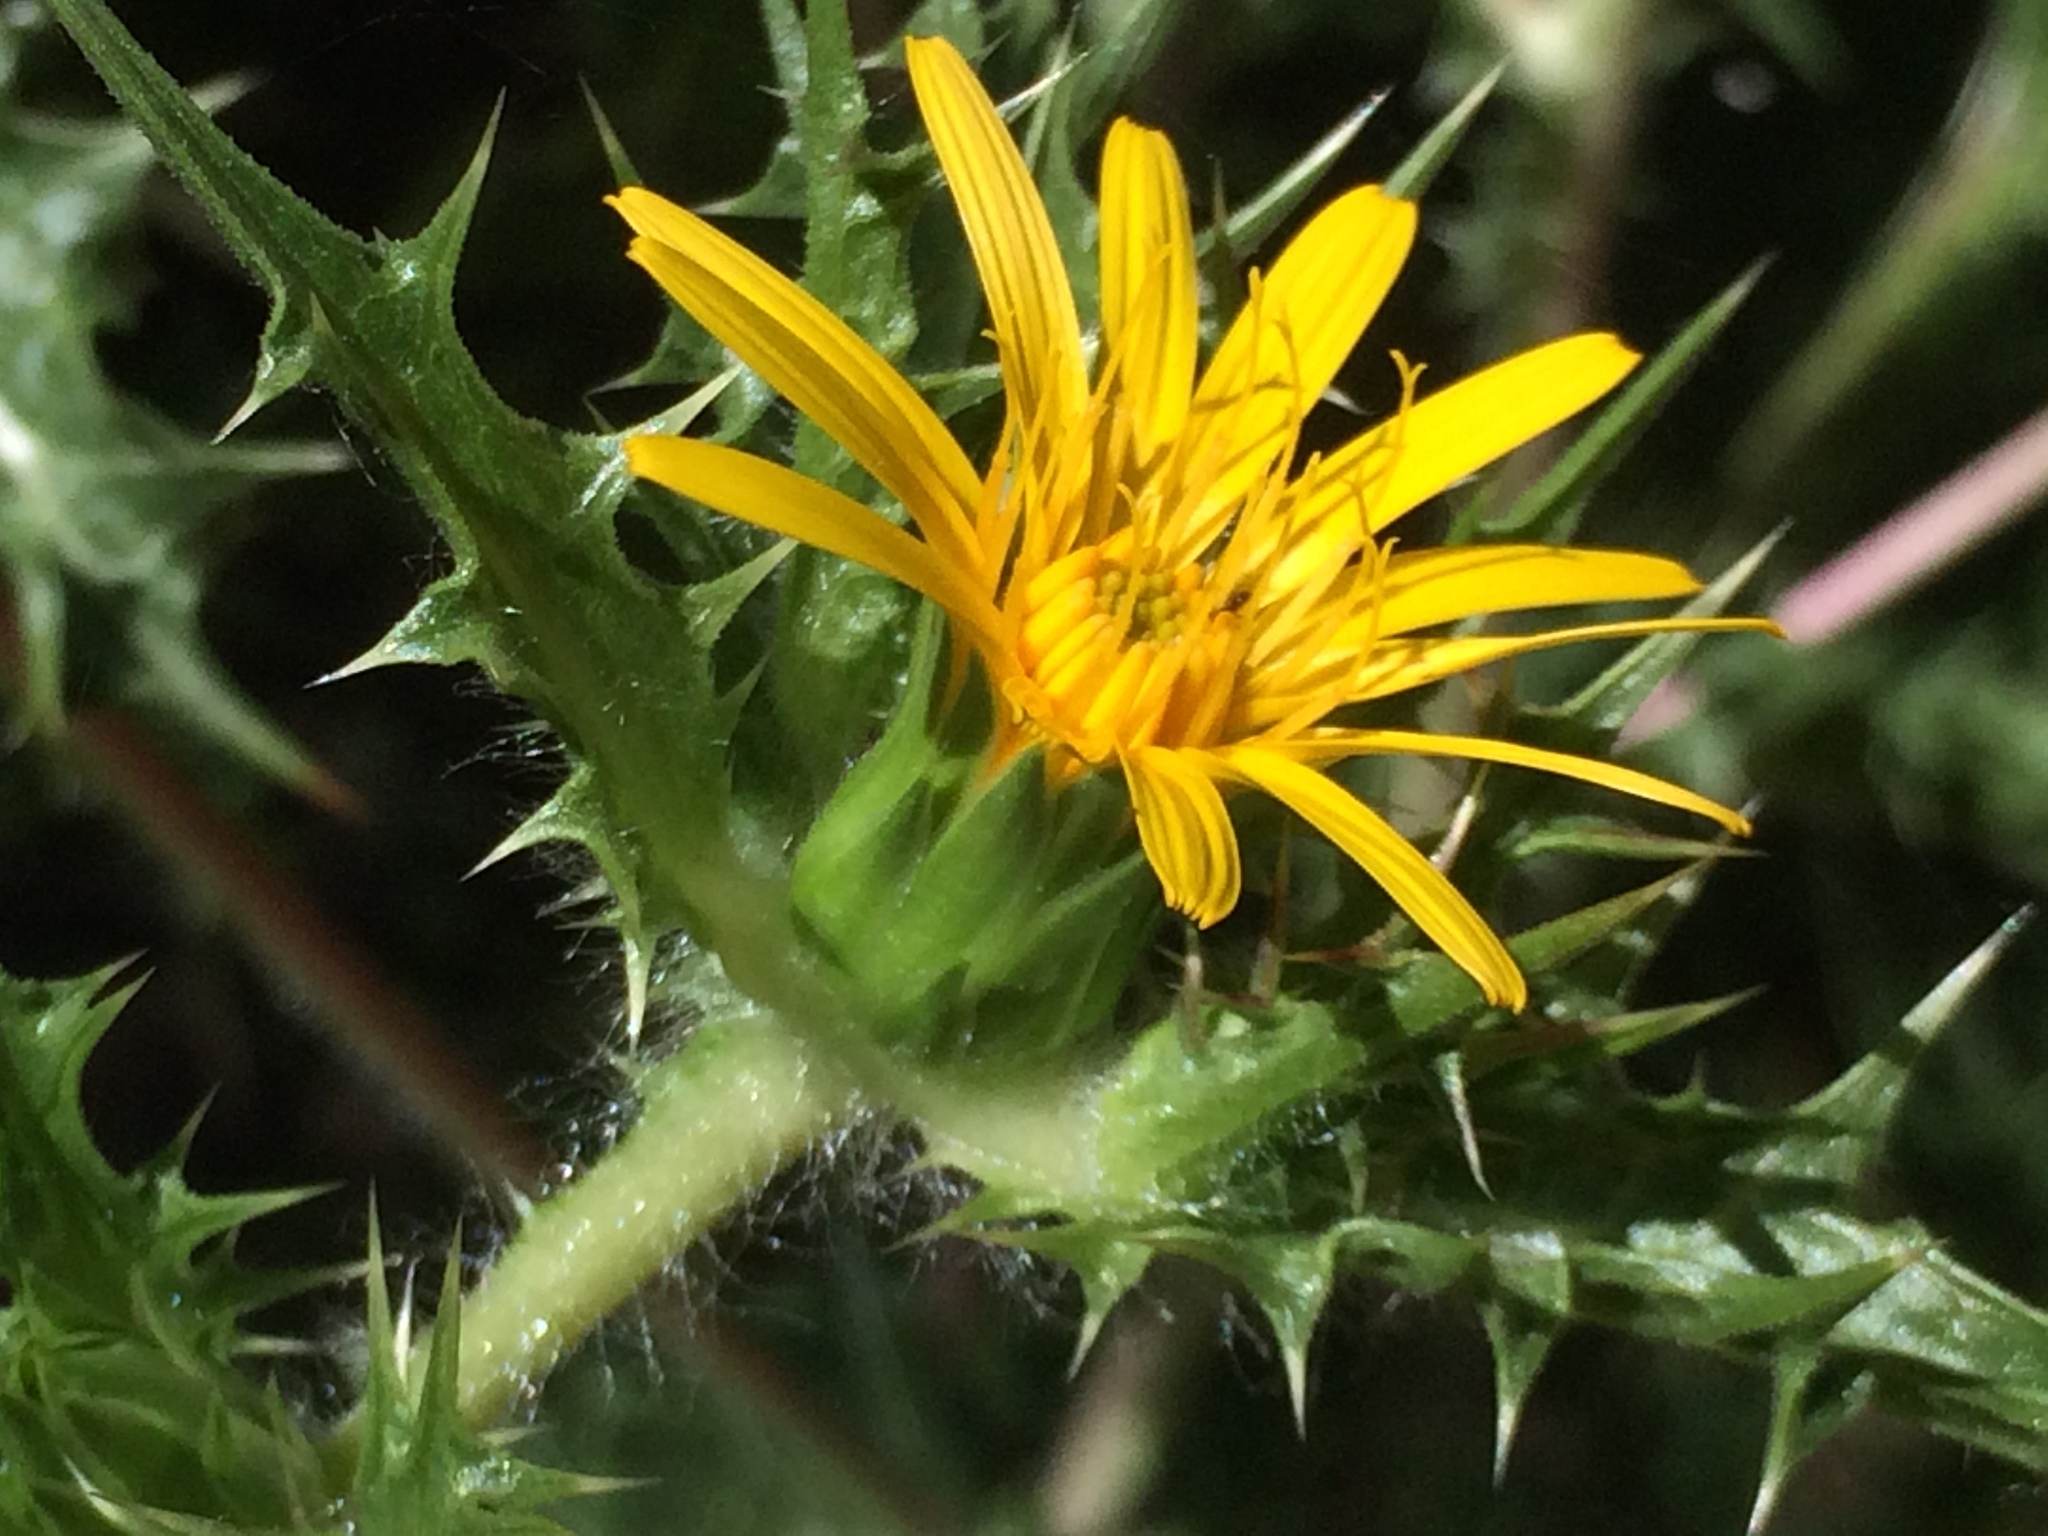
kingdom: Plantae
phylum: Tracheophyta
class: Magnoliopsida
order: Asterales
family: Asteraceae
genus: Scolymus
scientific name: Scolymus hispanicus
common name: Golden thistle
